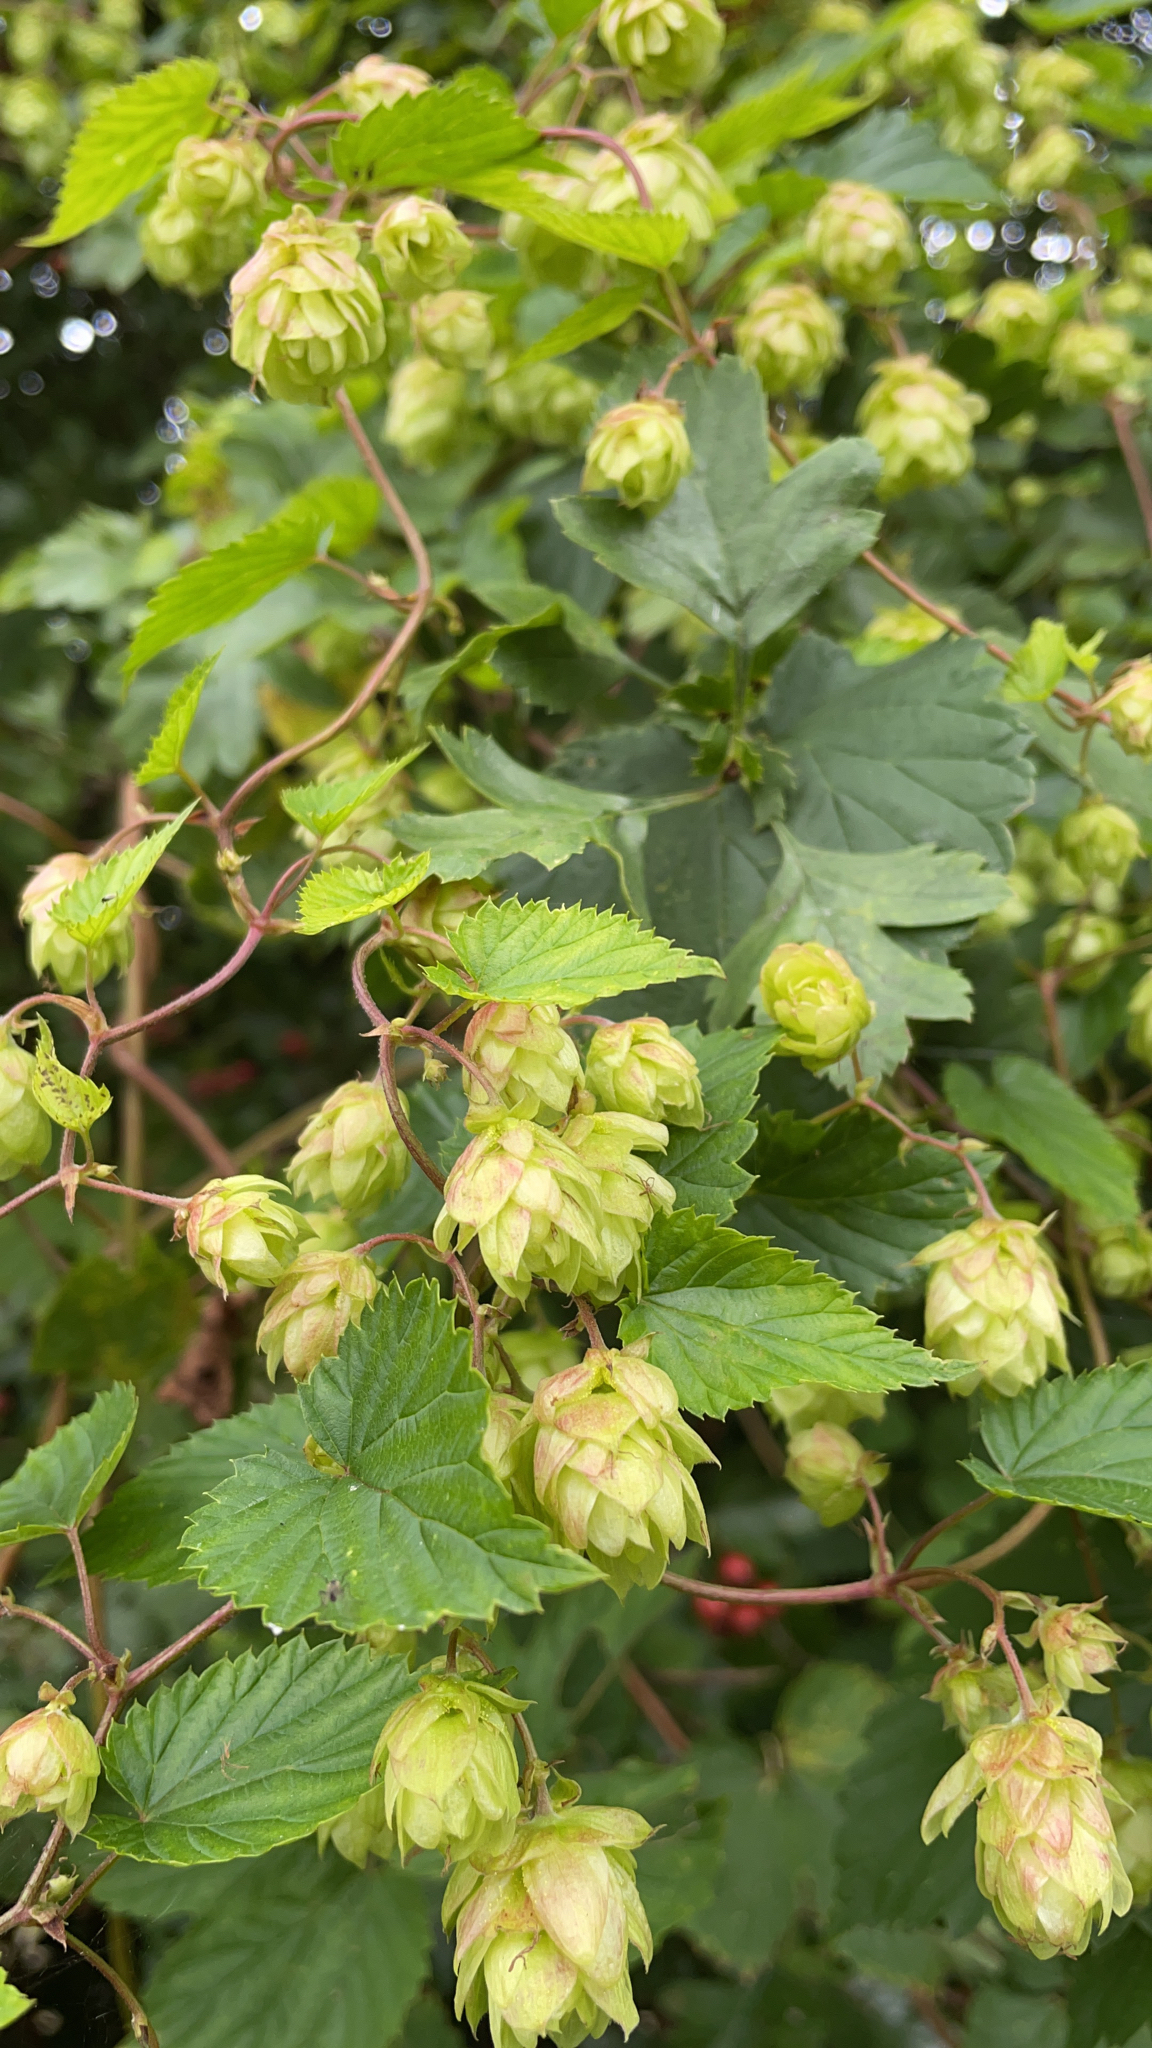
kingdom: Plantae
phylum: Tracheophyta
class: Magnoliopsida
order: Rosales
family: Cannabaceae
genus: Humulus
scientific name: Humulus lupulus
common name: Hop
